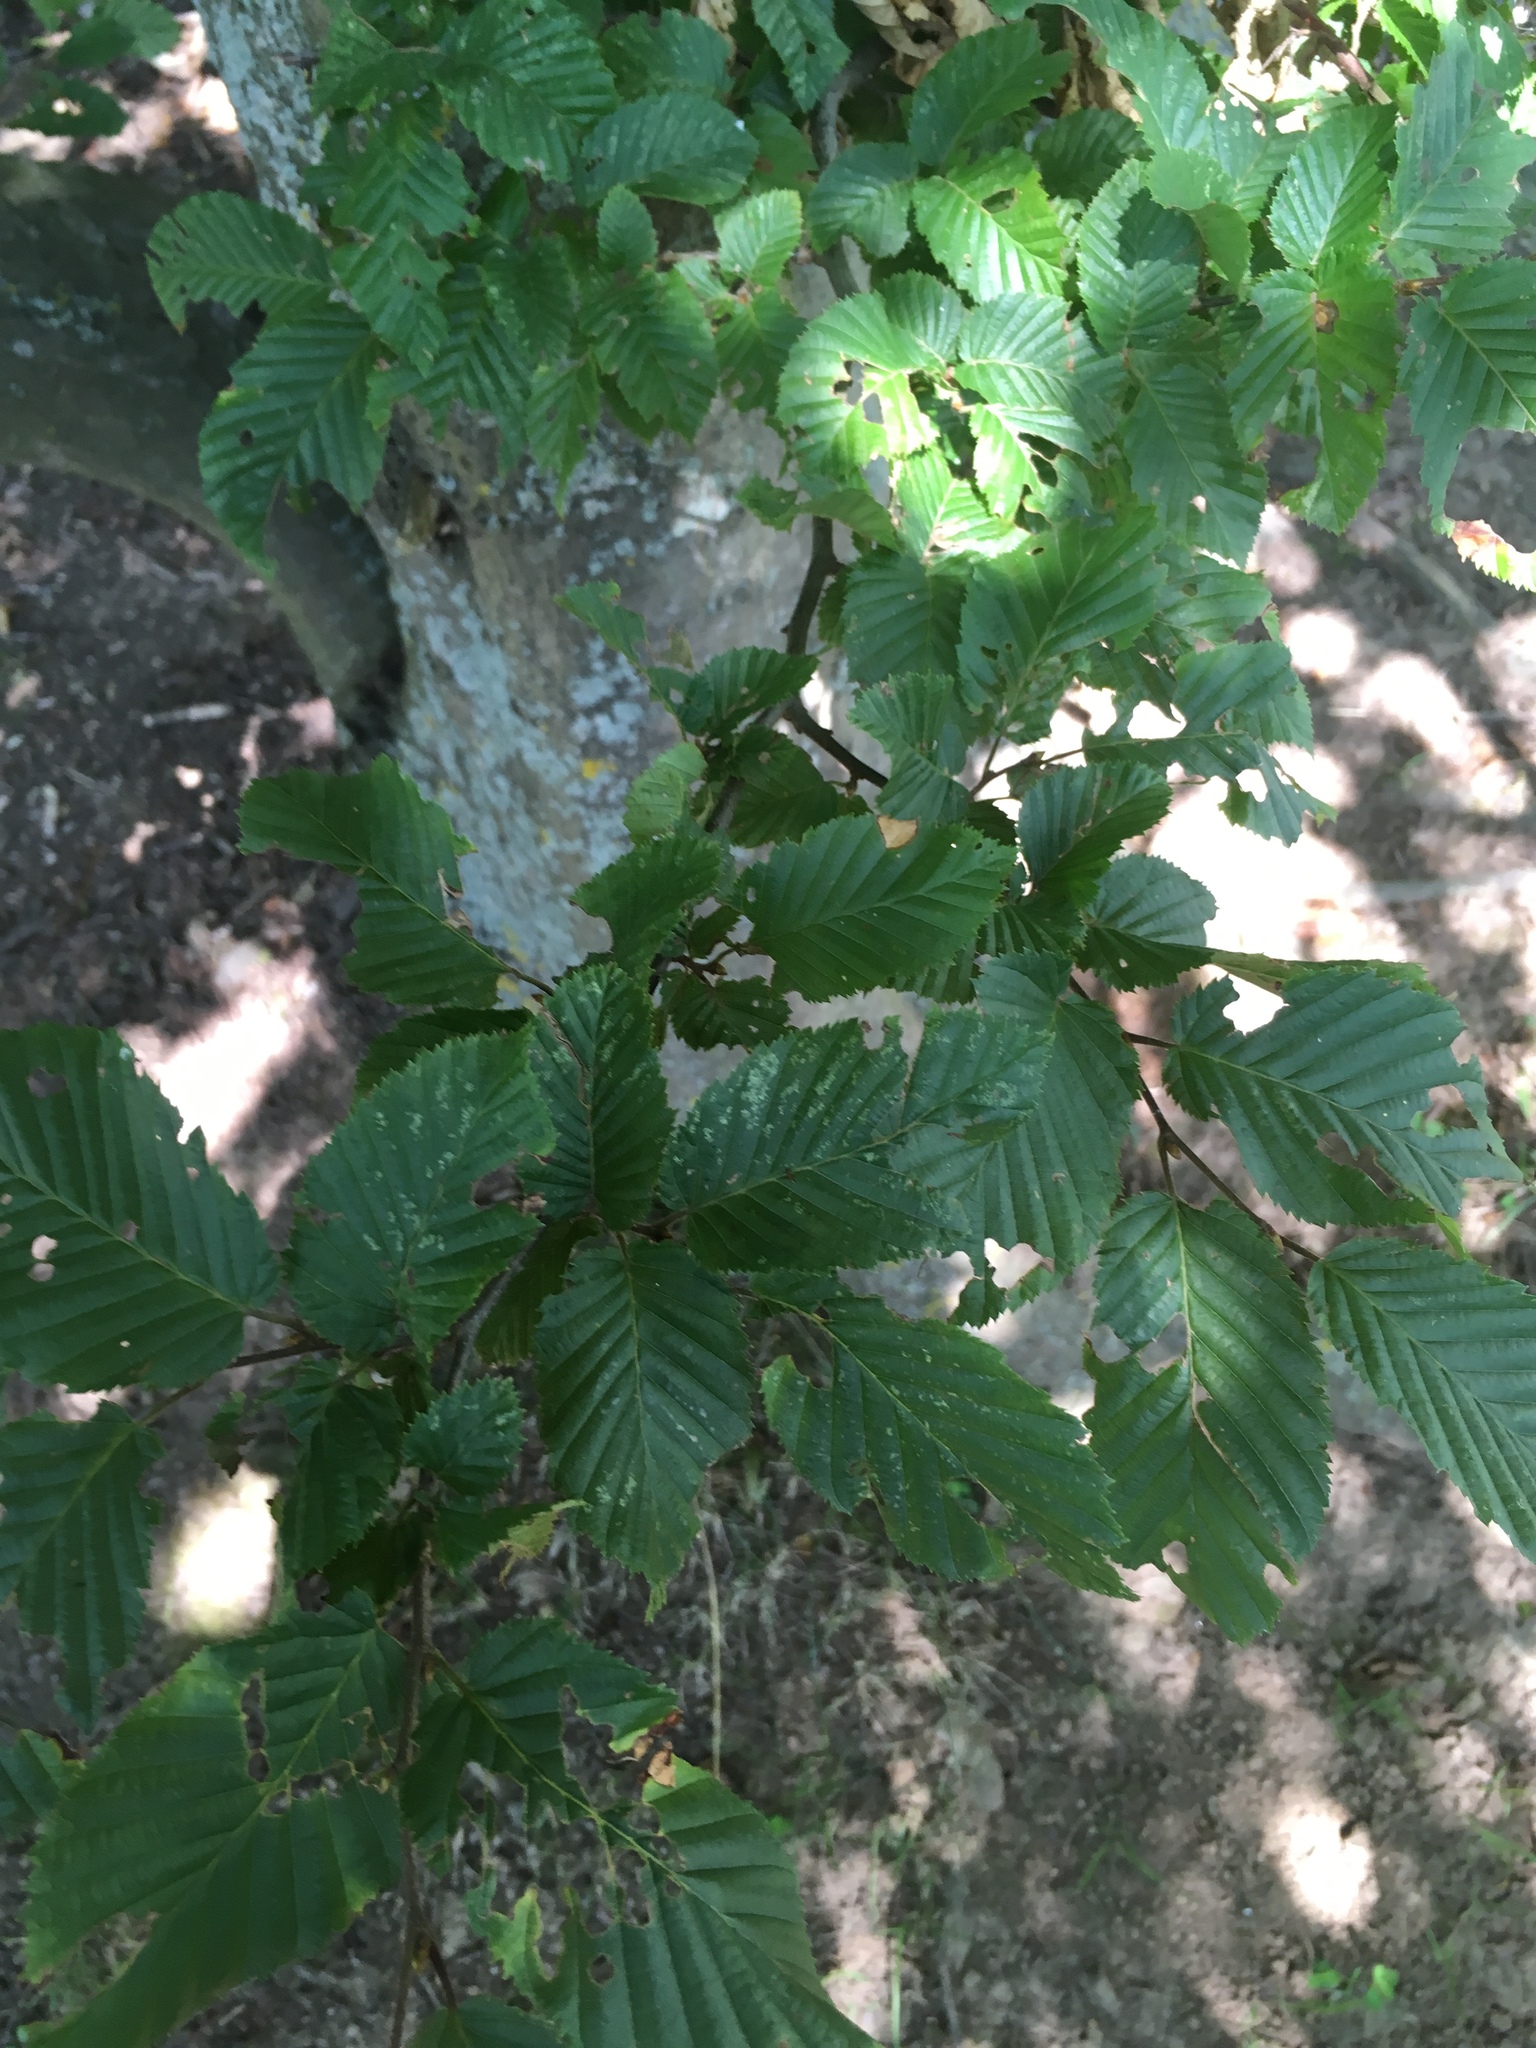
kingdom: Plantae
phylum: Tracheophyta
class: Magnoliopsida
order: Fagales
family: Betulaceae
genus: Carpinus
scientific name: Carpinus betulus
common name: Hornbeam
